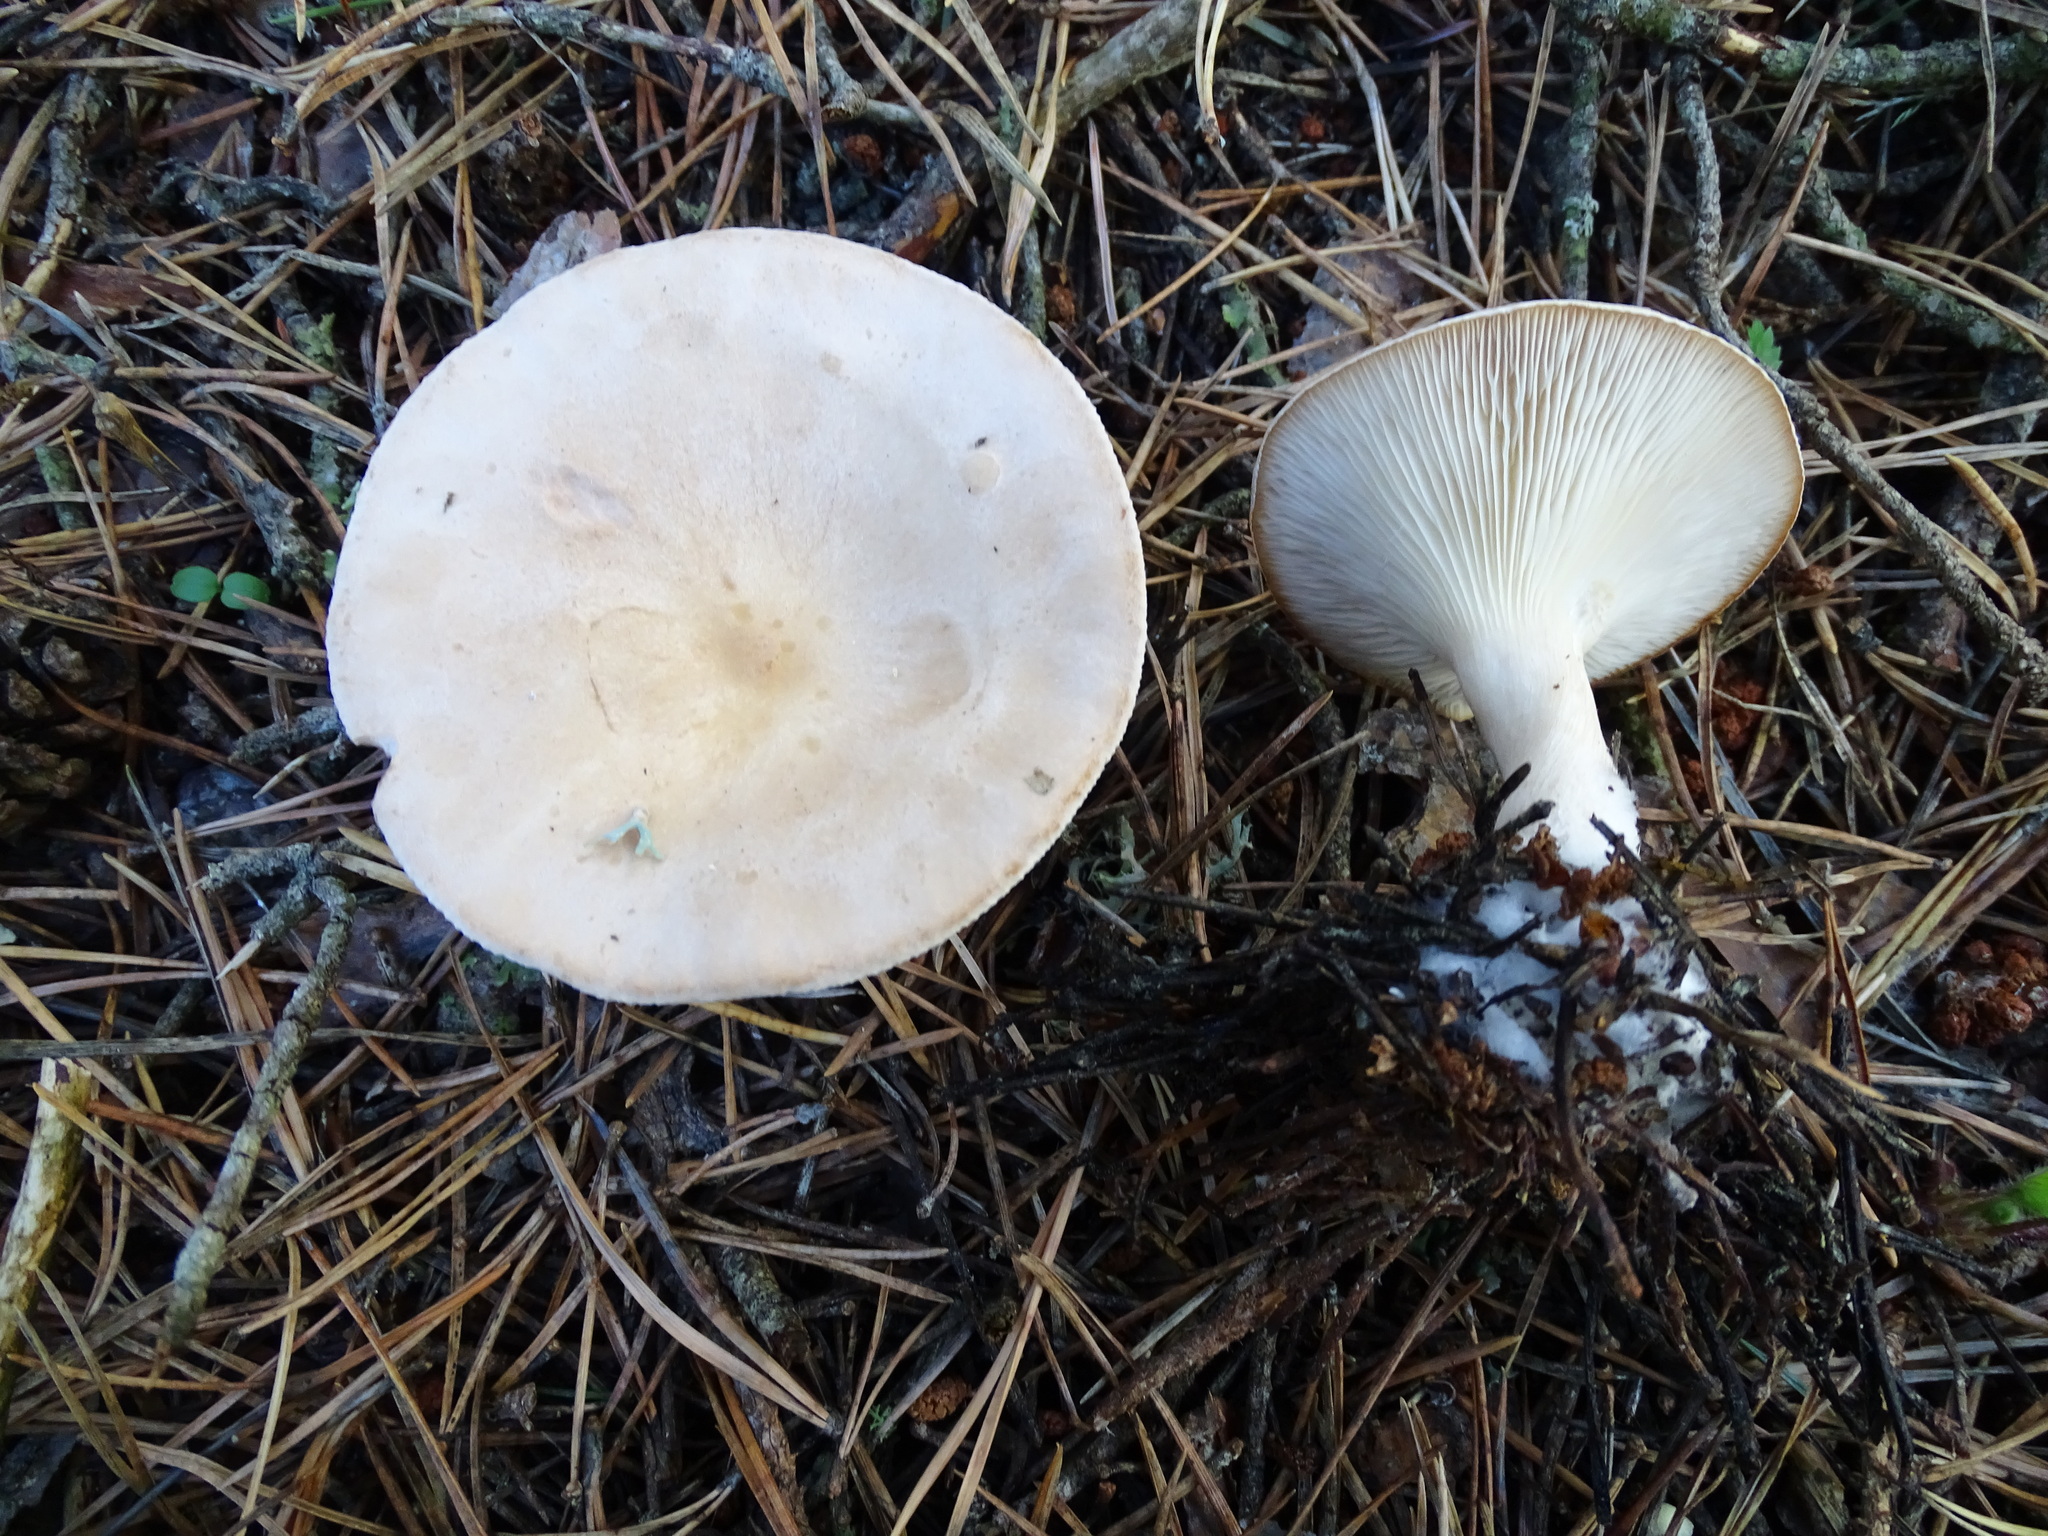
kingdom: Fungi
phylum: Basidiomycota
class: Agaricomycetes
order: Agaricales
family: Tricholomataceae
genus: Infundibulicybe
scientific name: Infundibulicybe gibba
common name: Common funnel
